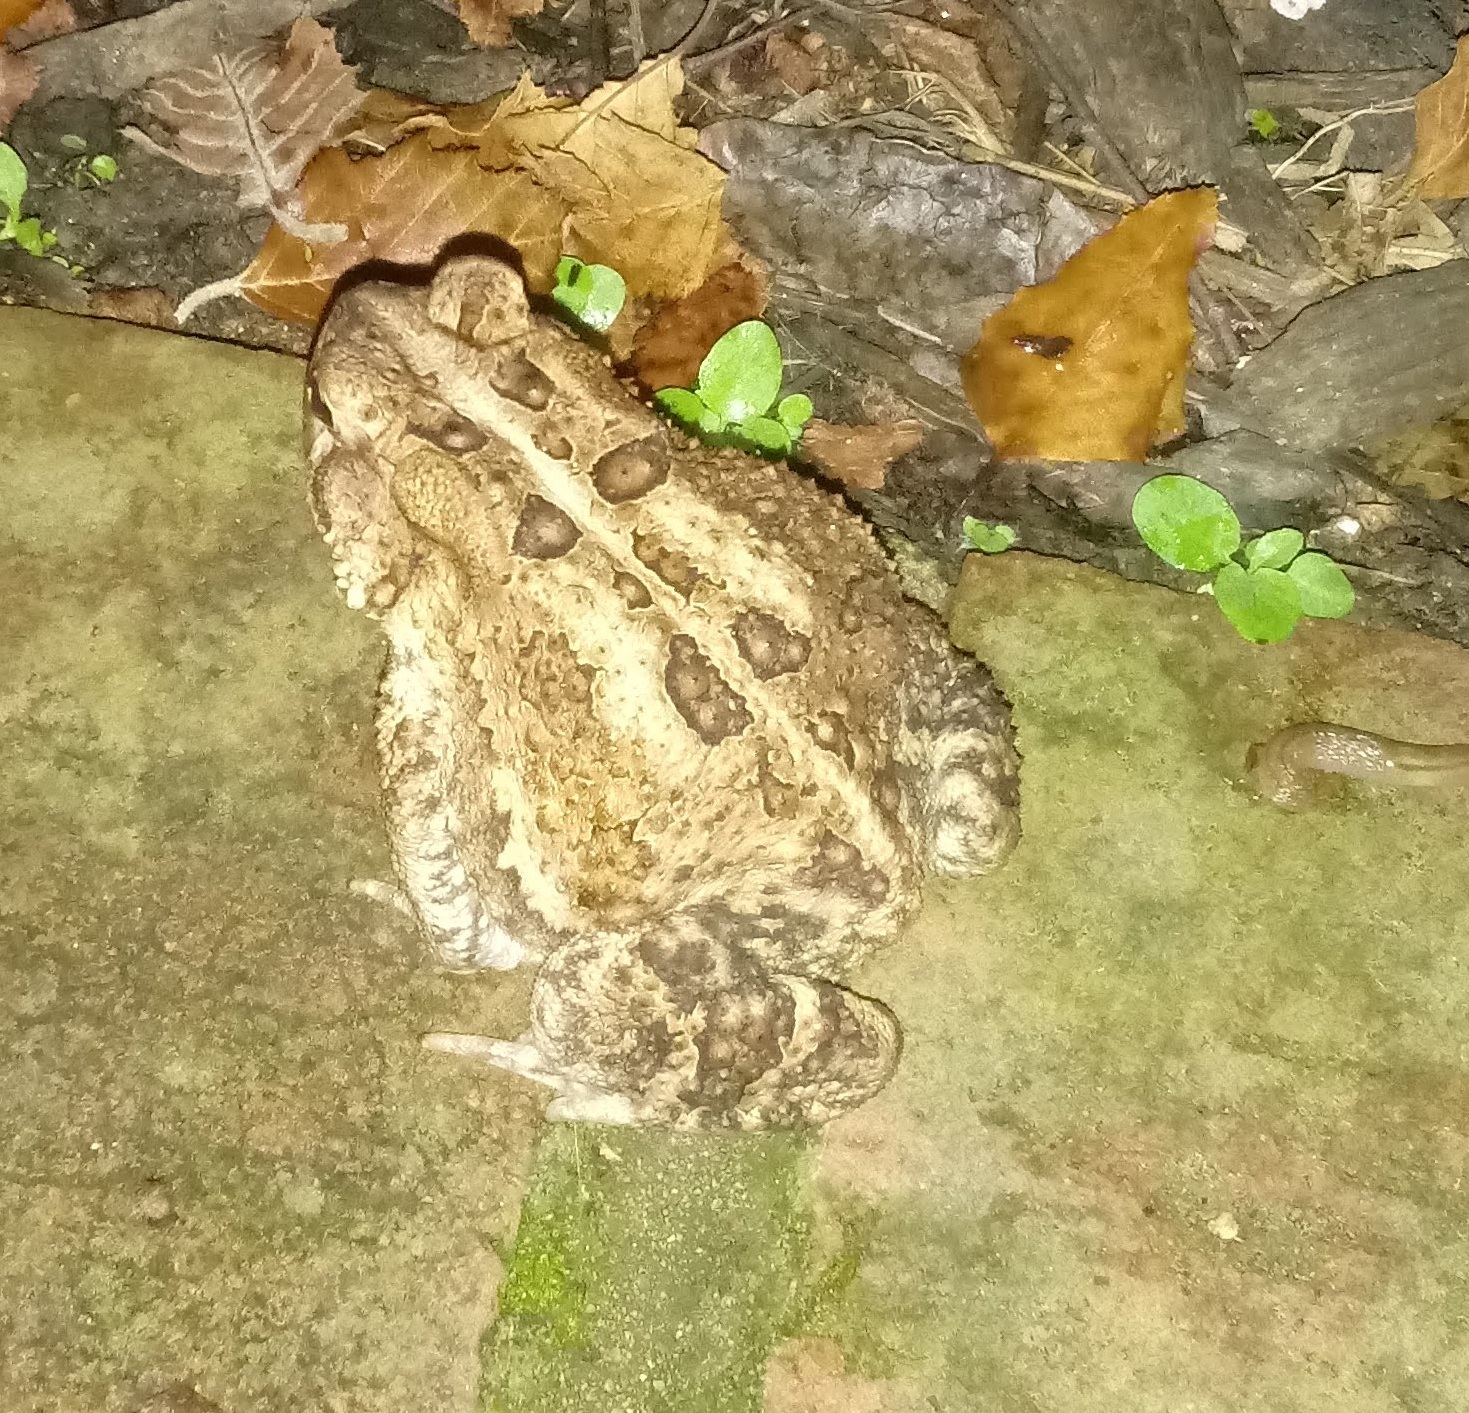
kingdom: Animalia
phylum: Chordata
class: Amphibia
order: Anura
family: Bufonidae
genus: Anaxyrus
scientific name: Anaxyrus americanus
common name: American toad
